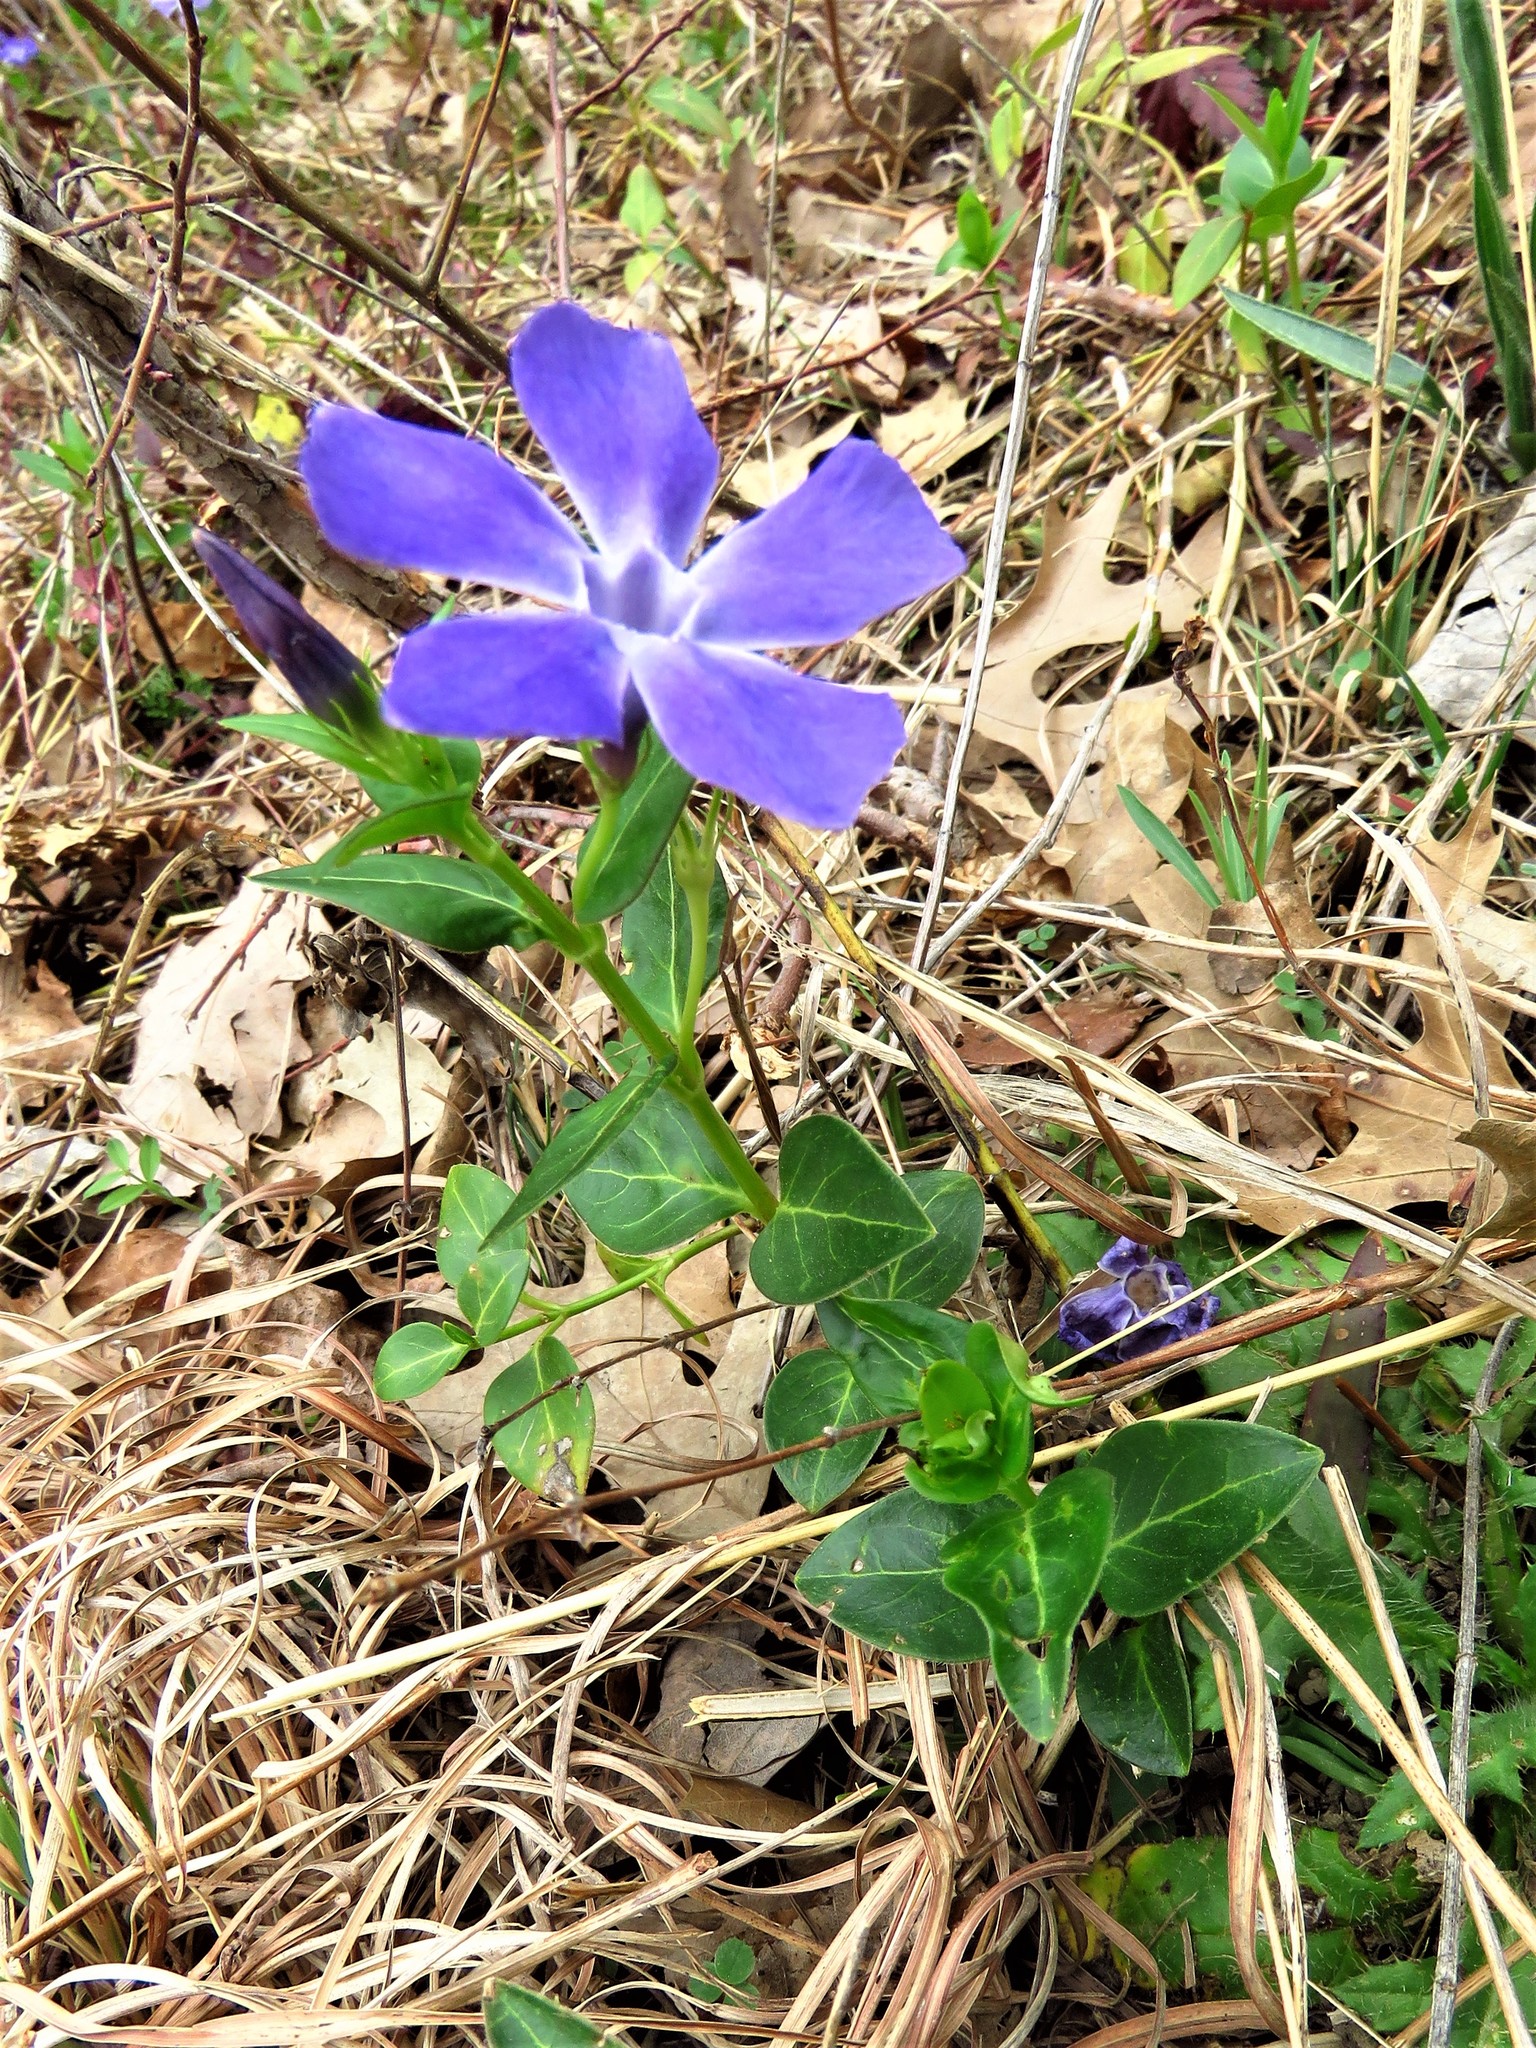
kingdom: Plantae
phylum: Tracheophyta
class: Magnoliopsida
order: Gentianales
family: Apocynaceae
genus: Vinca
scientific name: Vinca major
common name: Greater periwinkle
